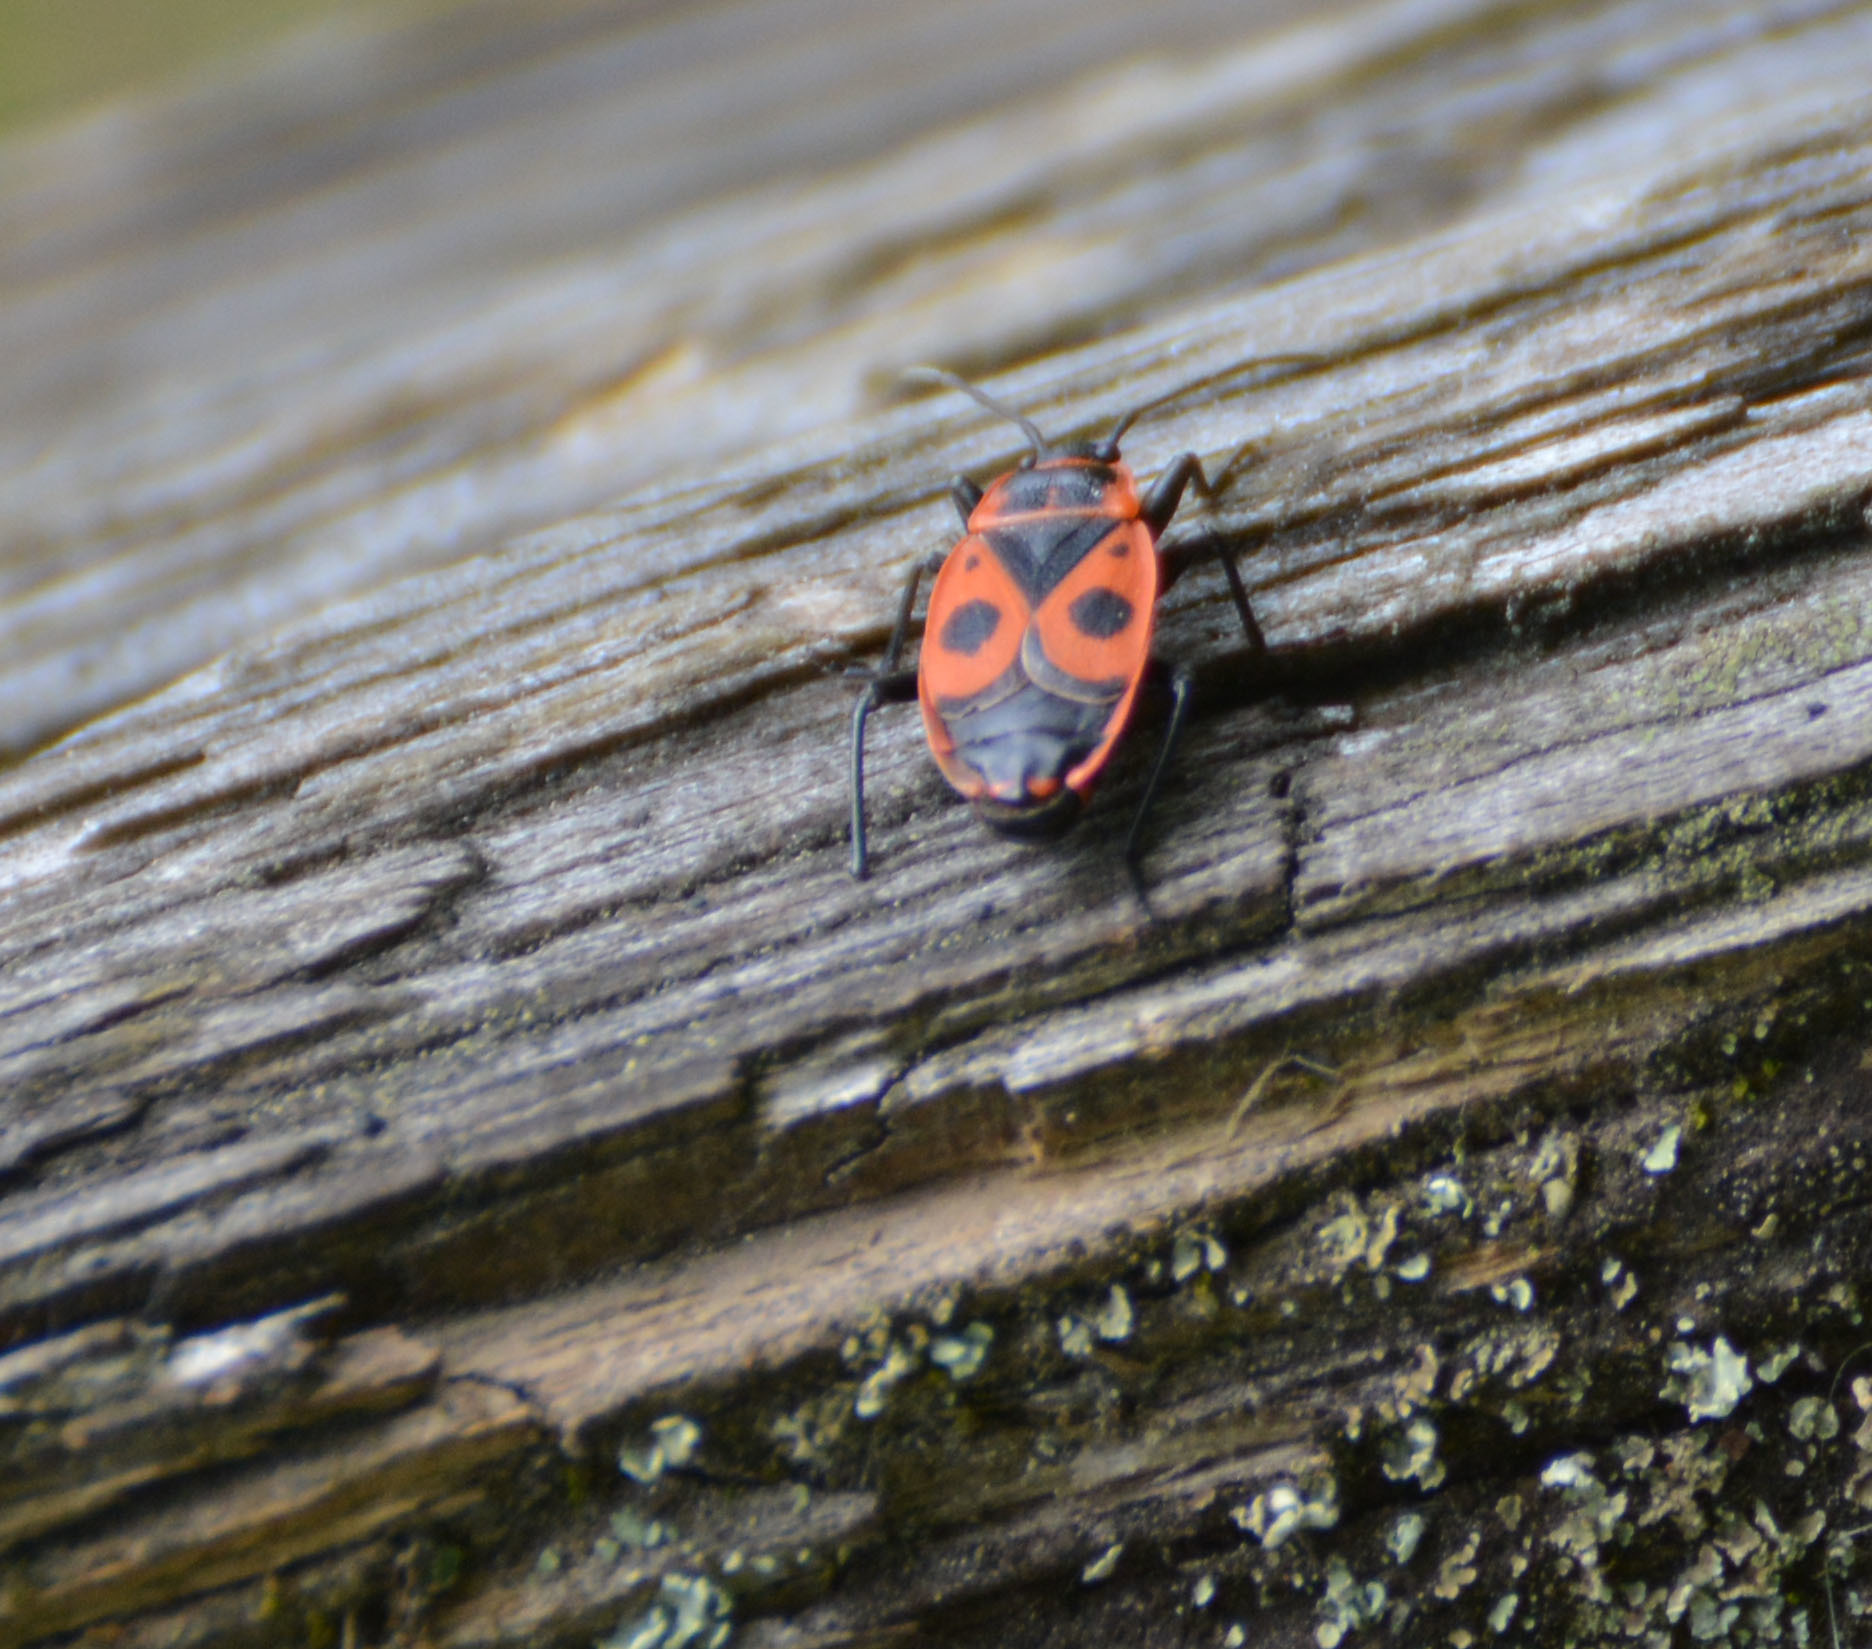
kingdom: Animalia
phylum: Arthropoda
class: Insecta
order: Hemiptera
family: Pyrrhocoridae
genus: Pyrrhocoris
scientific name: Pyrrhocoris apterus
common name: Firebug
